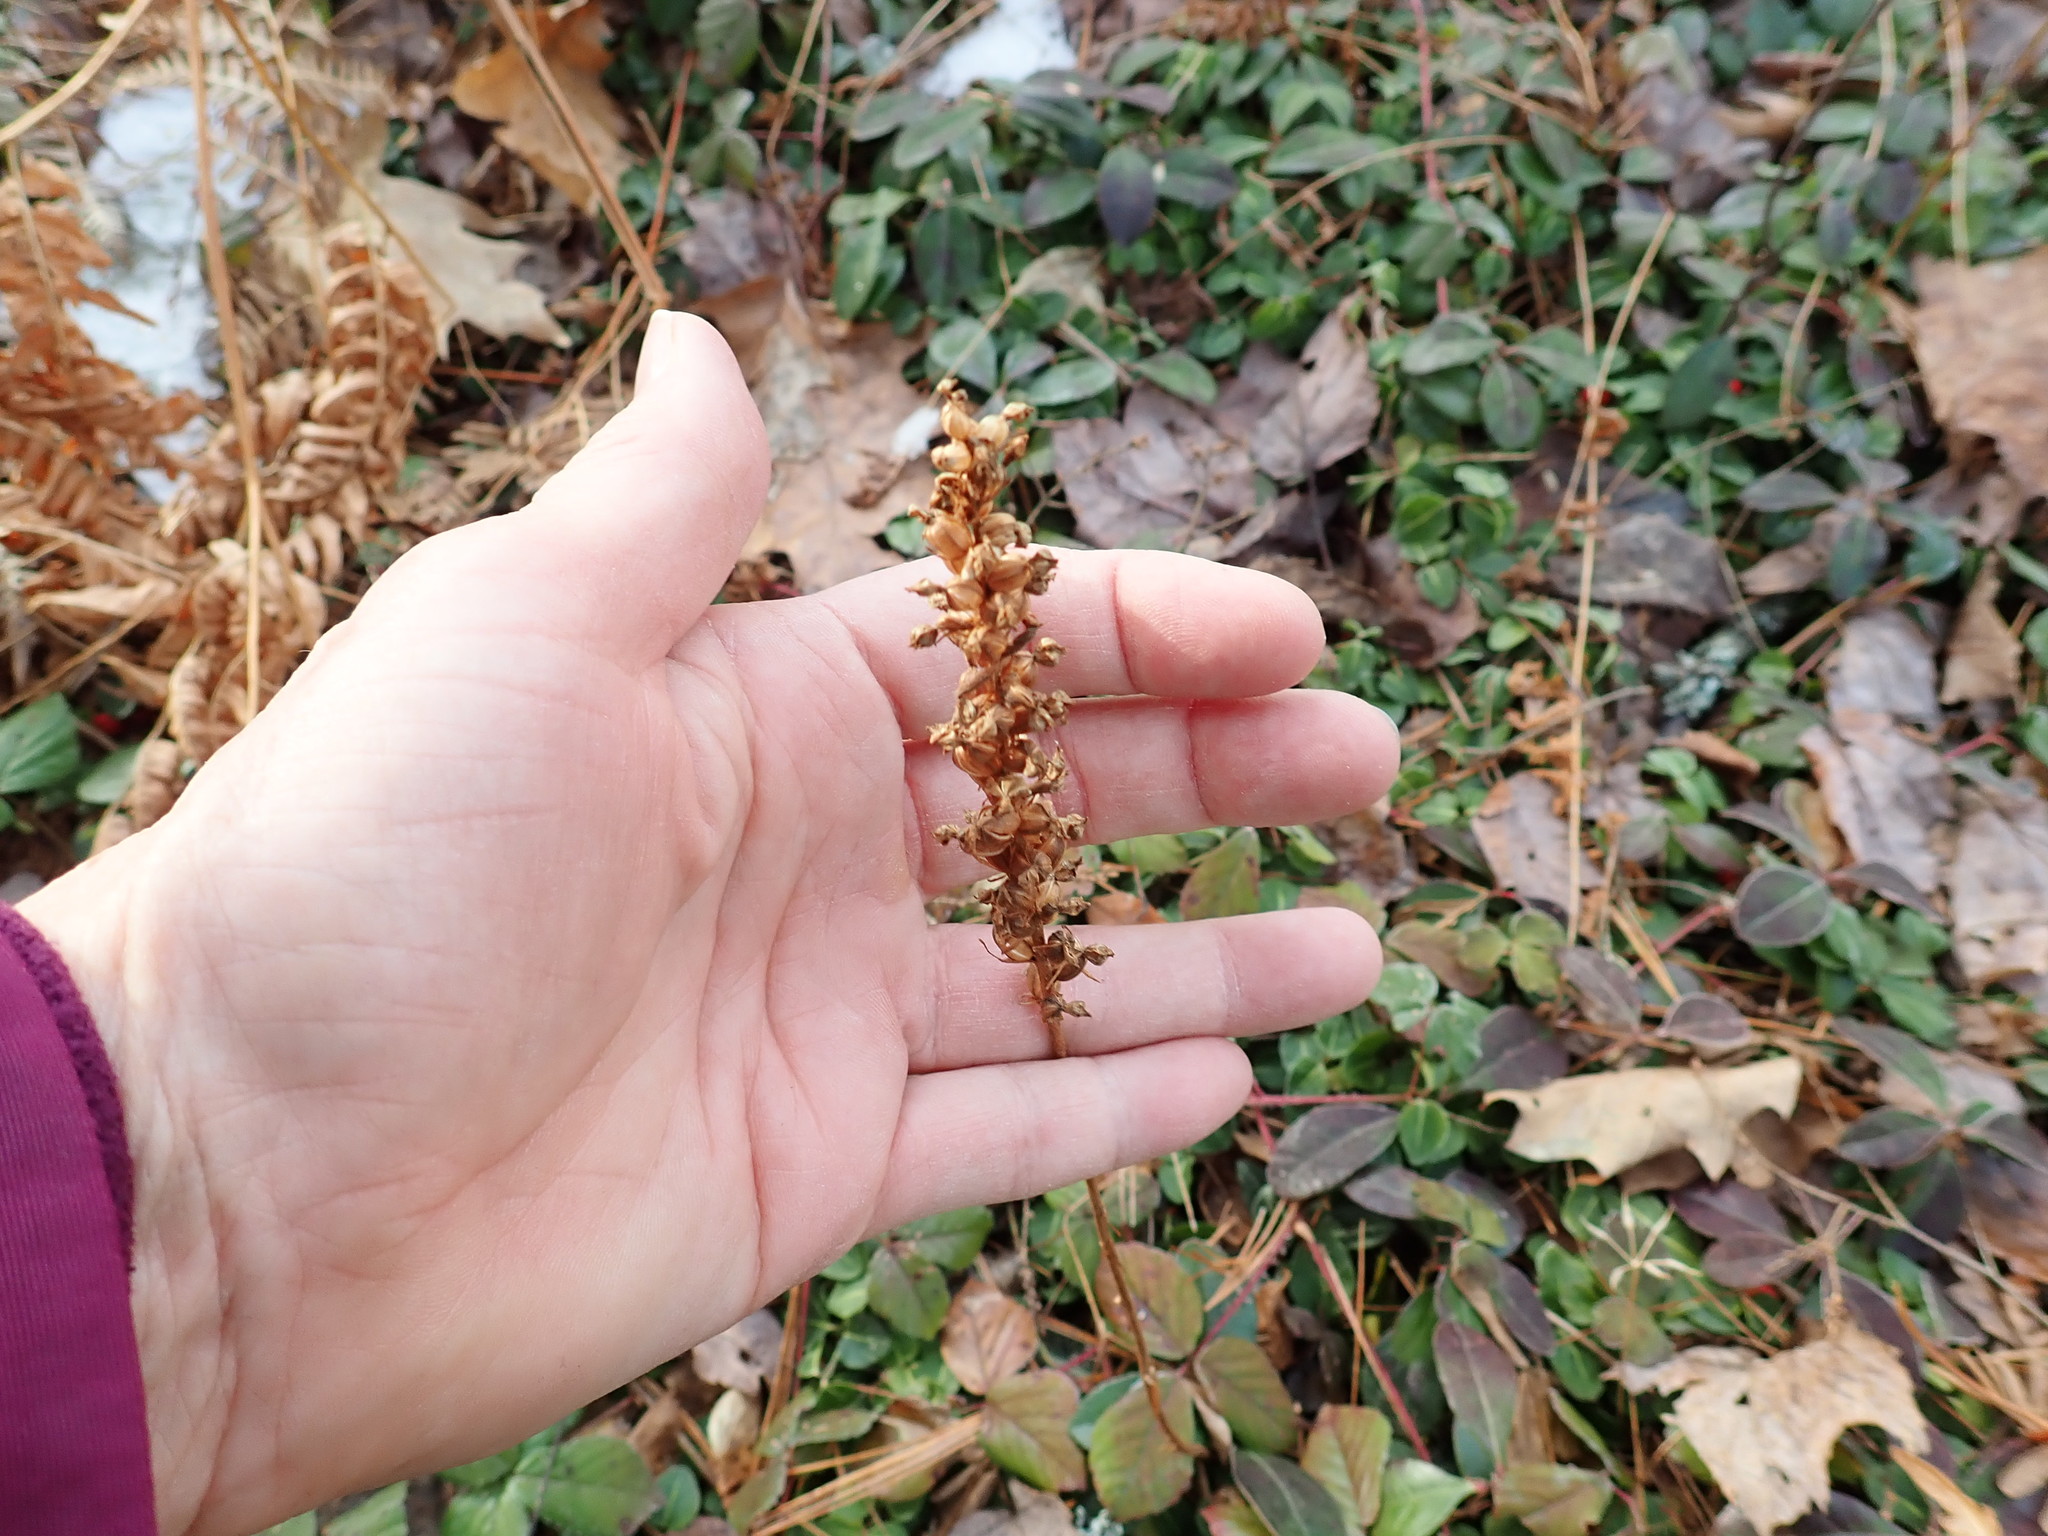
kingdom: Plantae
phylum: Tracheophyta
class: Liliopsida
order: Asparagales
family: Orchidaceae
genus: Goodyera
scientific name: Goodyera pubescens
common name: Downy rattlesnake-plantain
